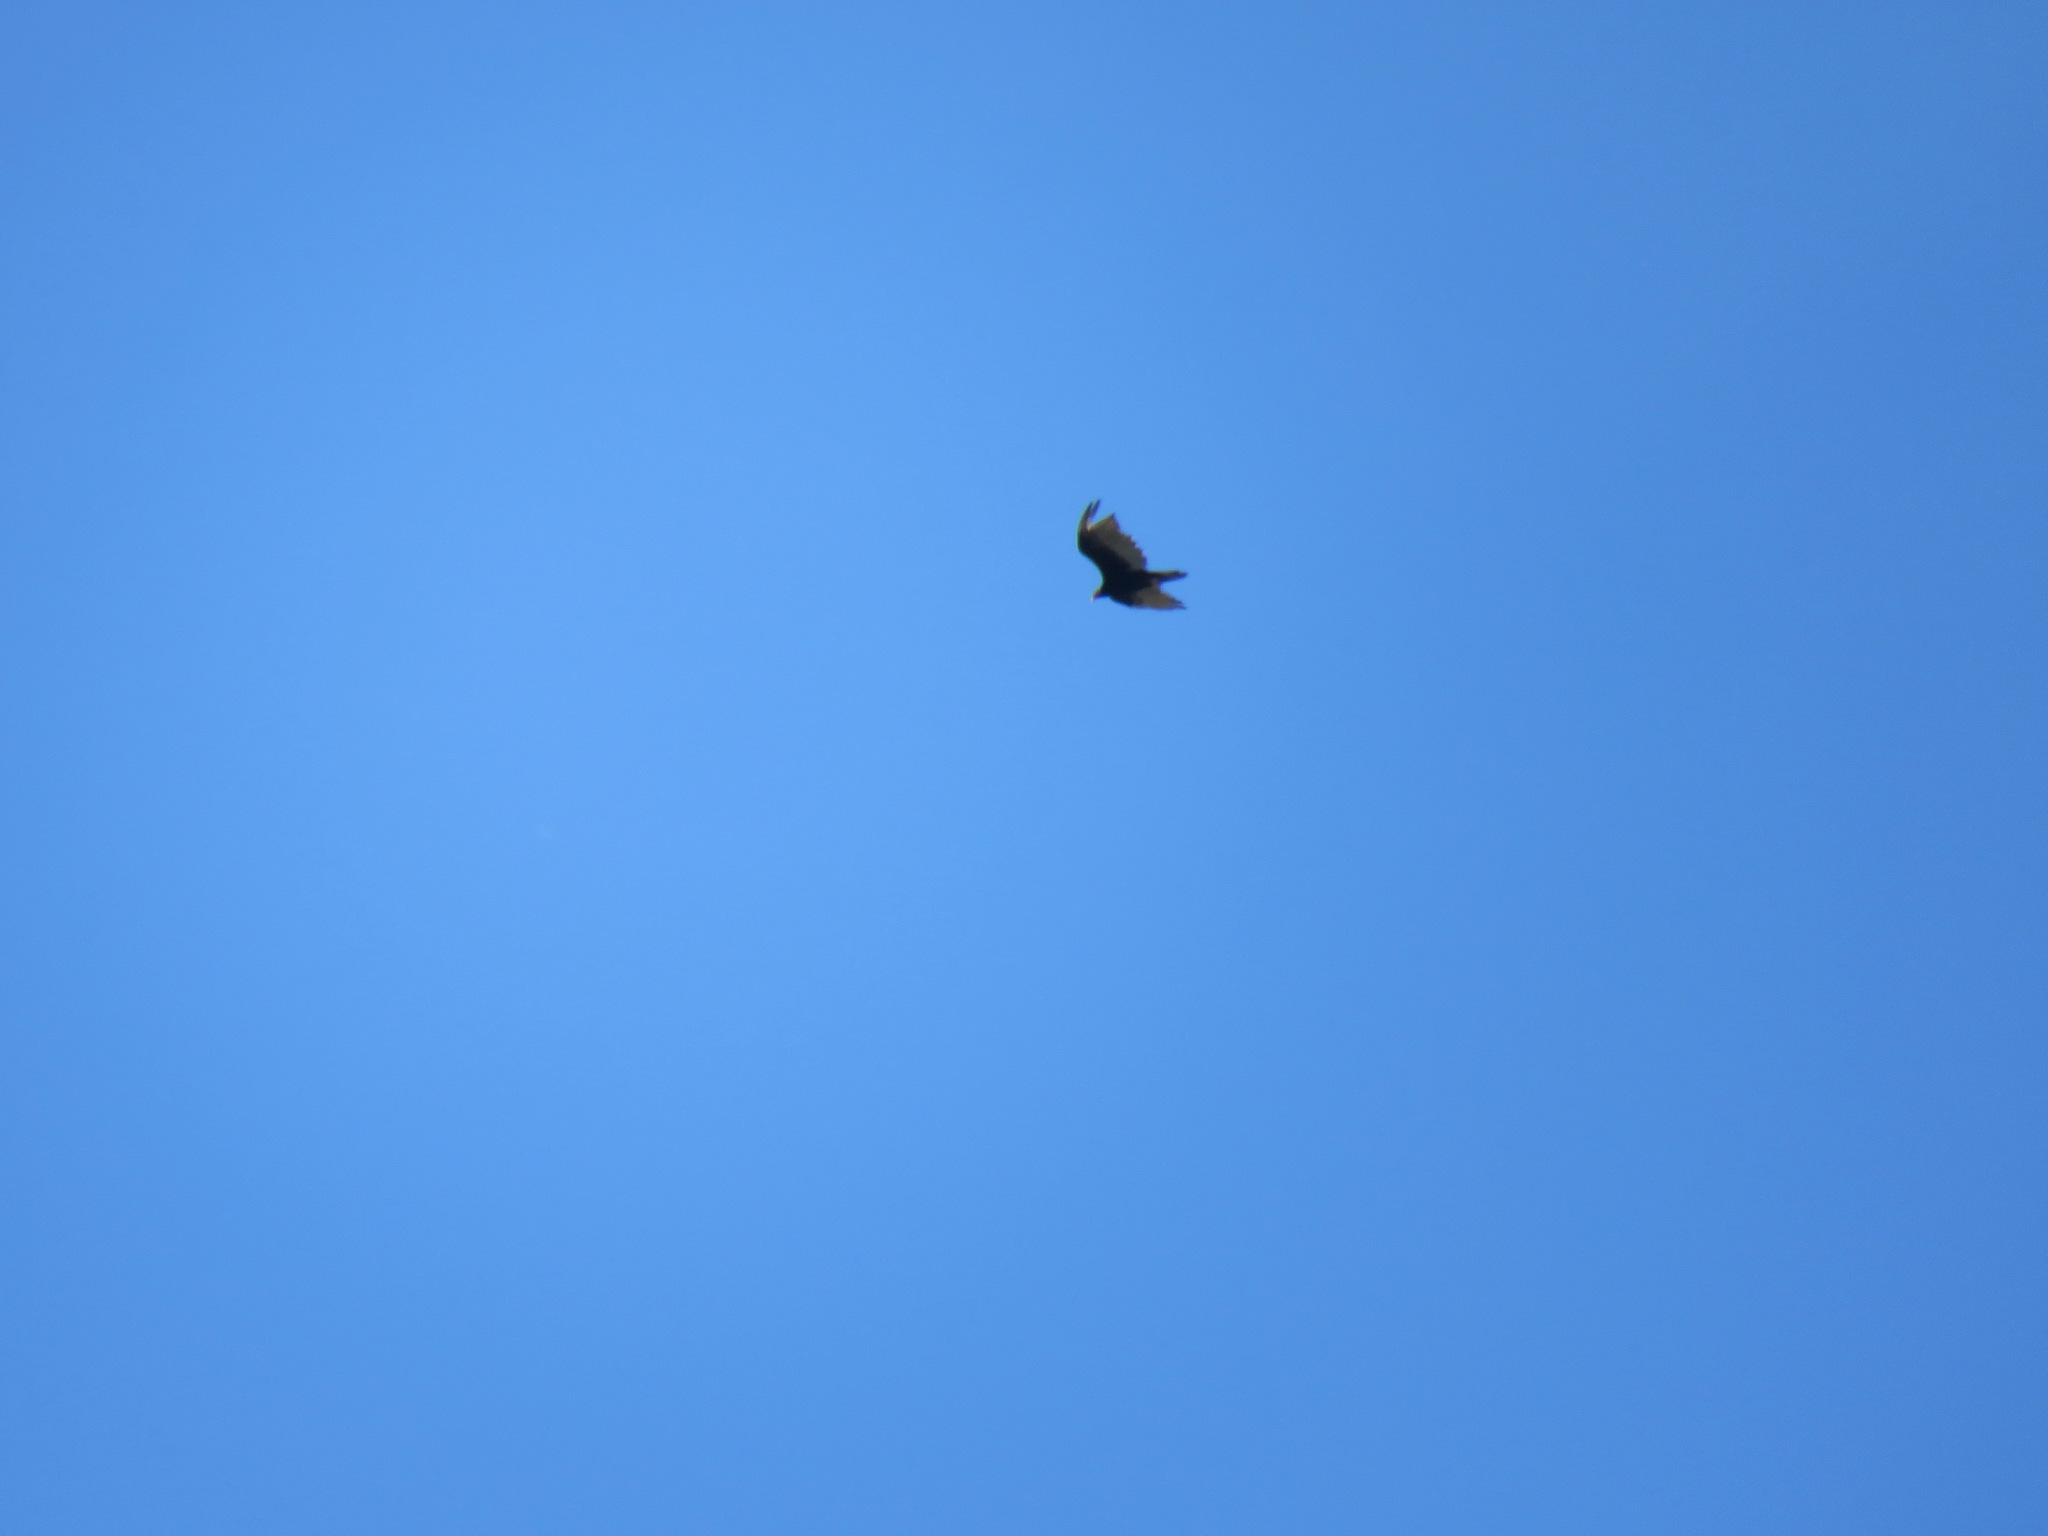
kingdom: Animalia
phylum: Chordata
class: Aves
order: Accipitriformes
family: Cathartidae
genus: Cathartes
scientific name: Cathartes aura
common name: Turkey vulture
